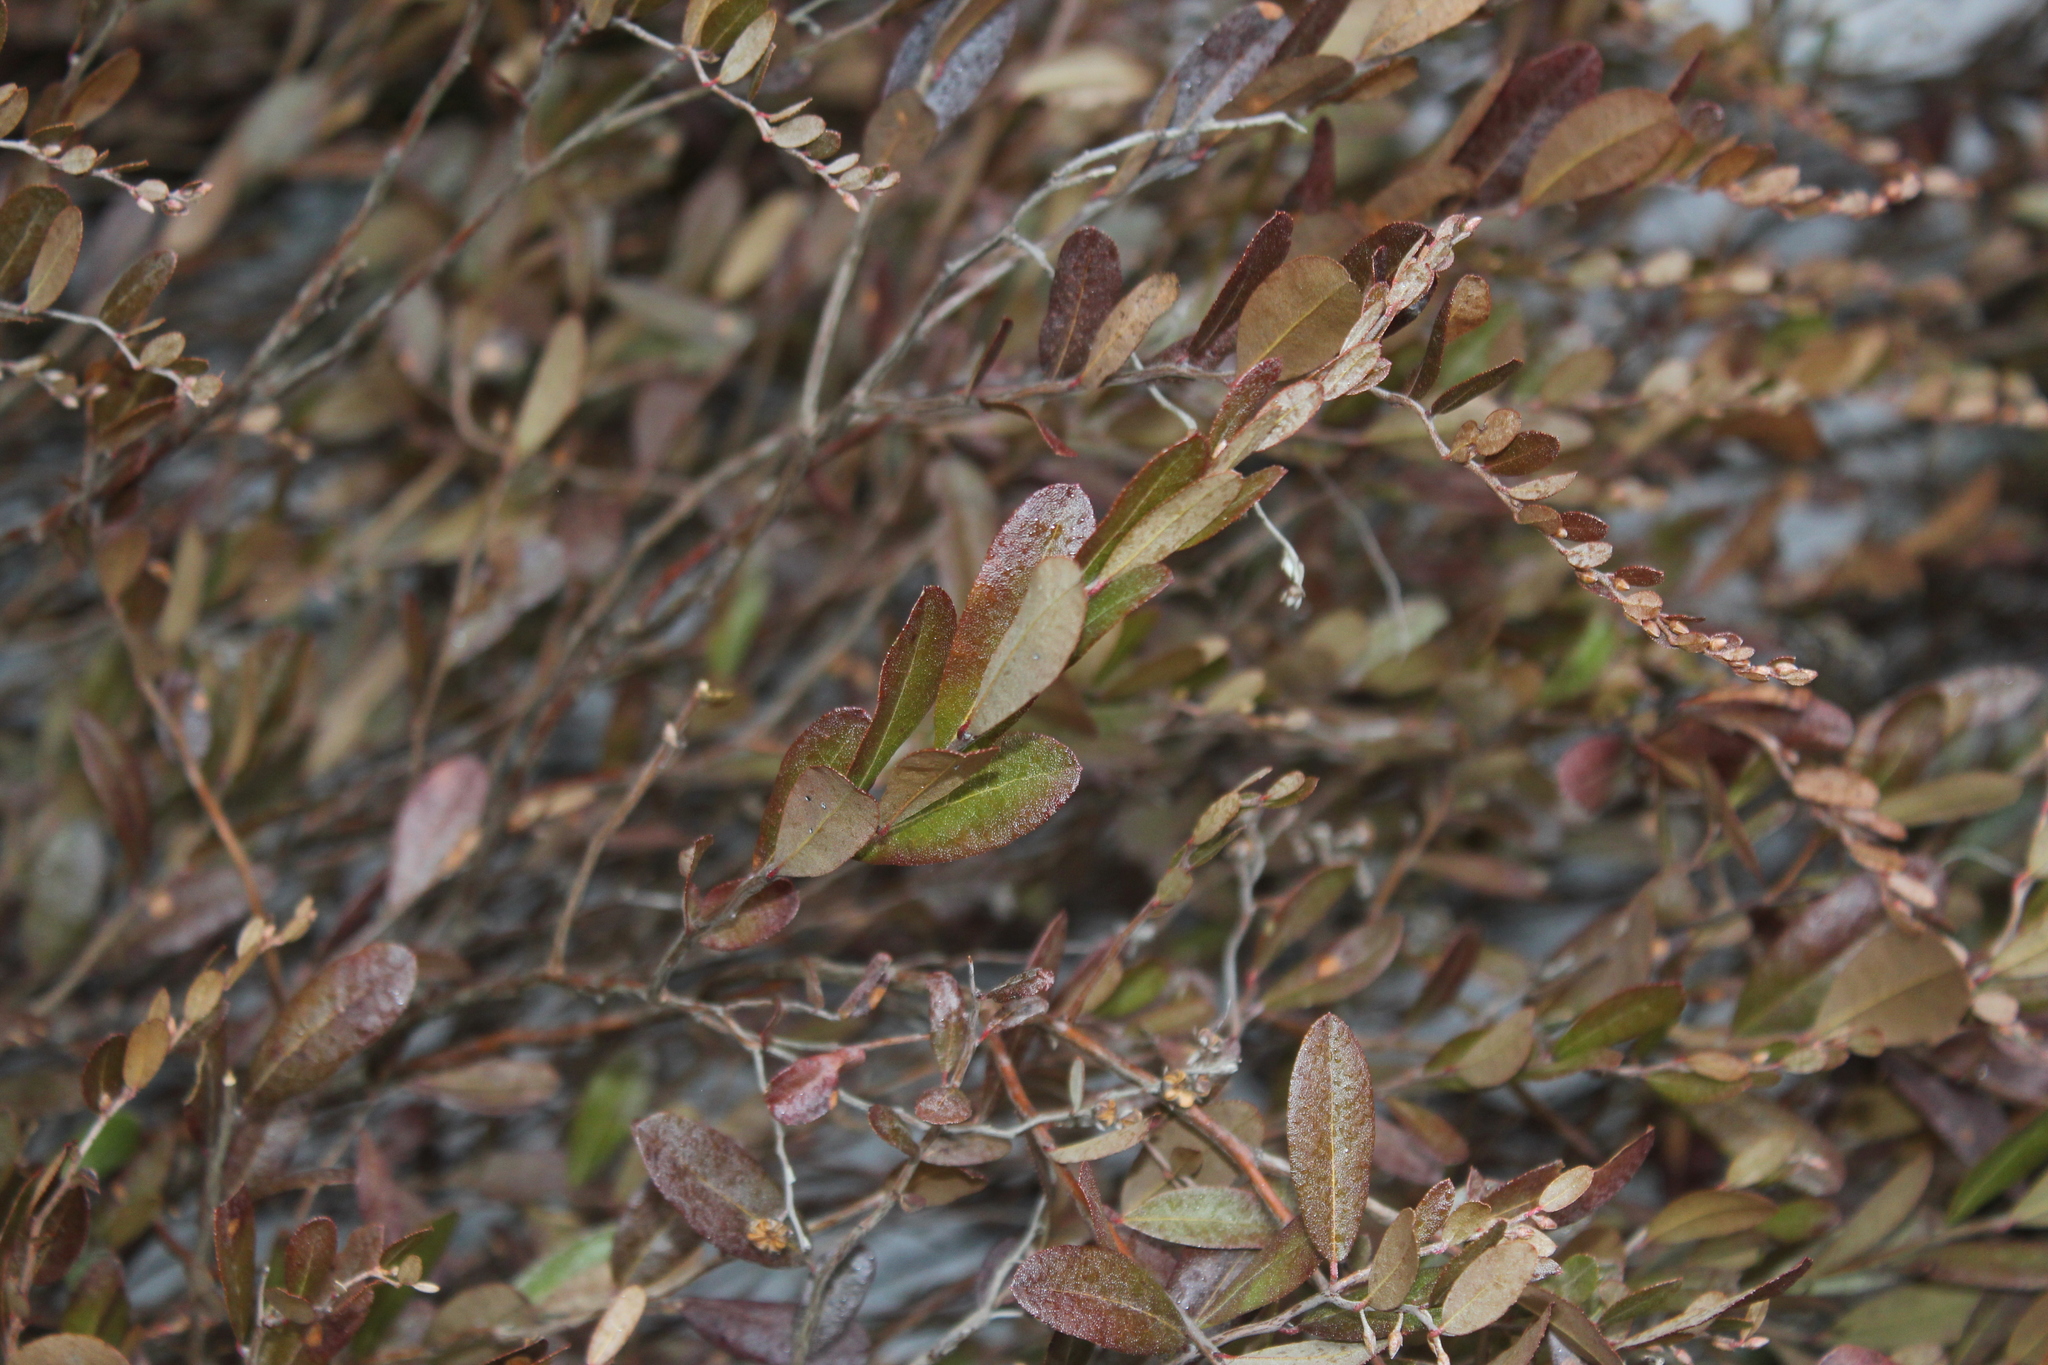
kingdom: Plantae
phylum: Tracheophyta
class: Magnoliopsida
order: Ericales
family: Ericaceae
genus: Chamaedaphne
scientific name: Chamaedaphne calyculata
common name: Leatherleaf
